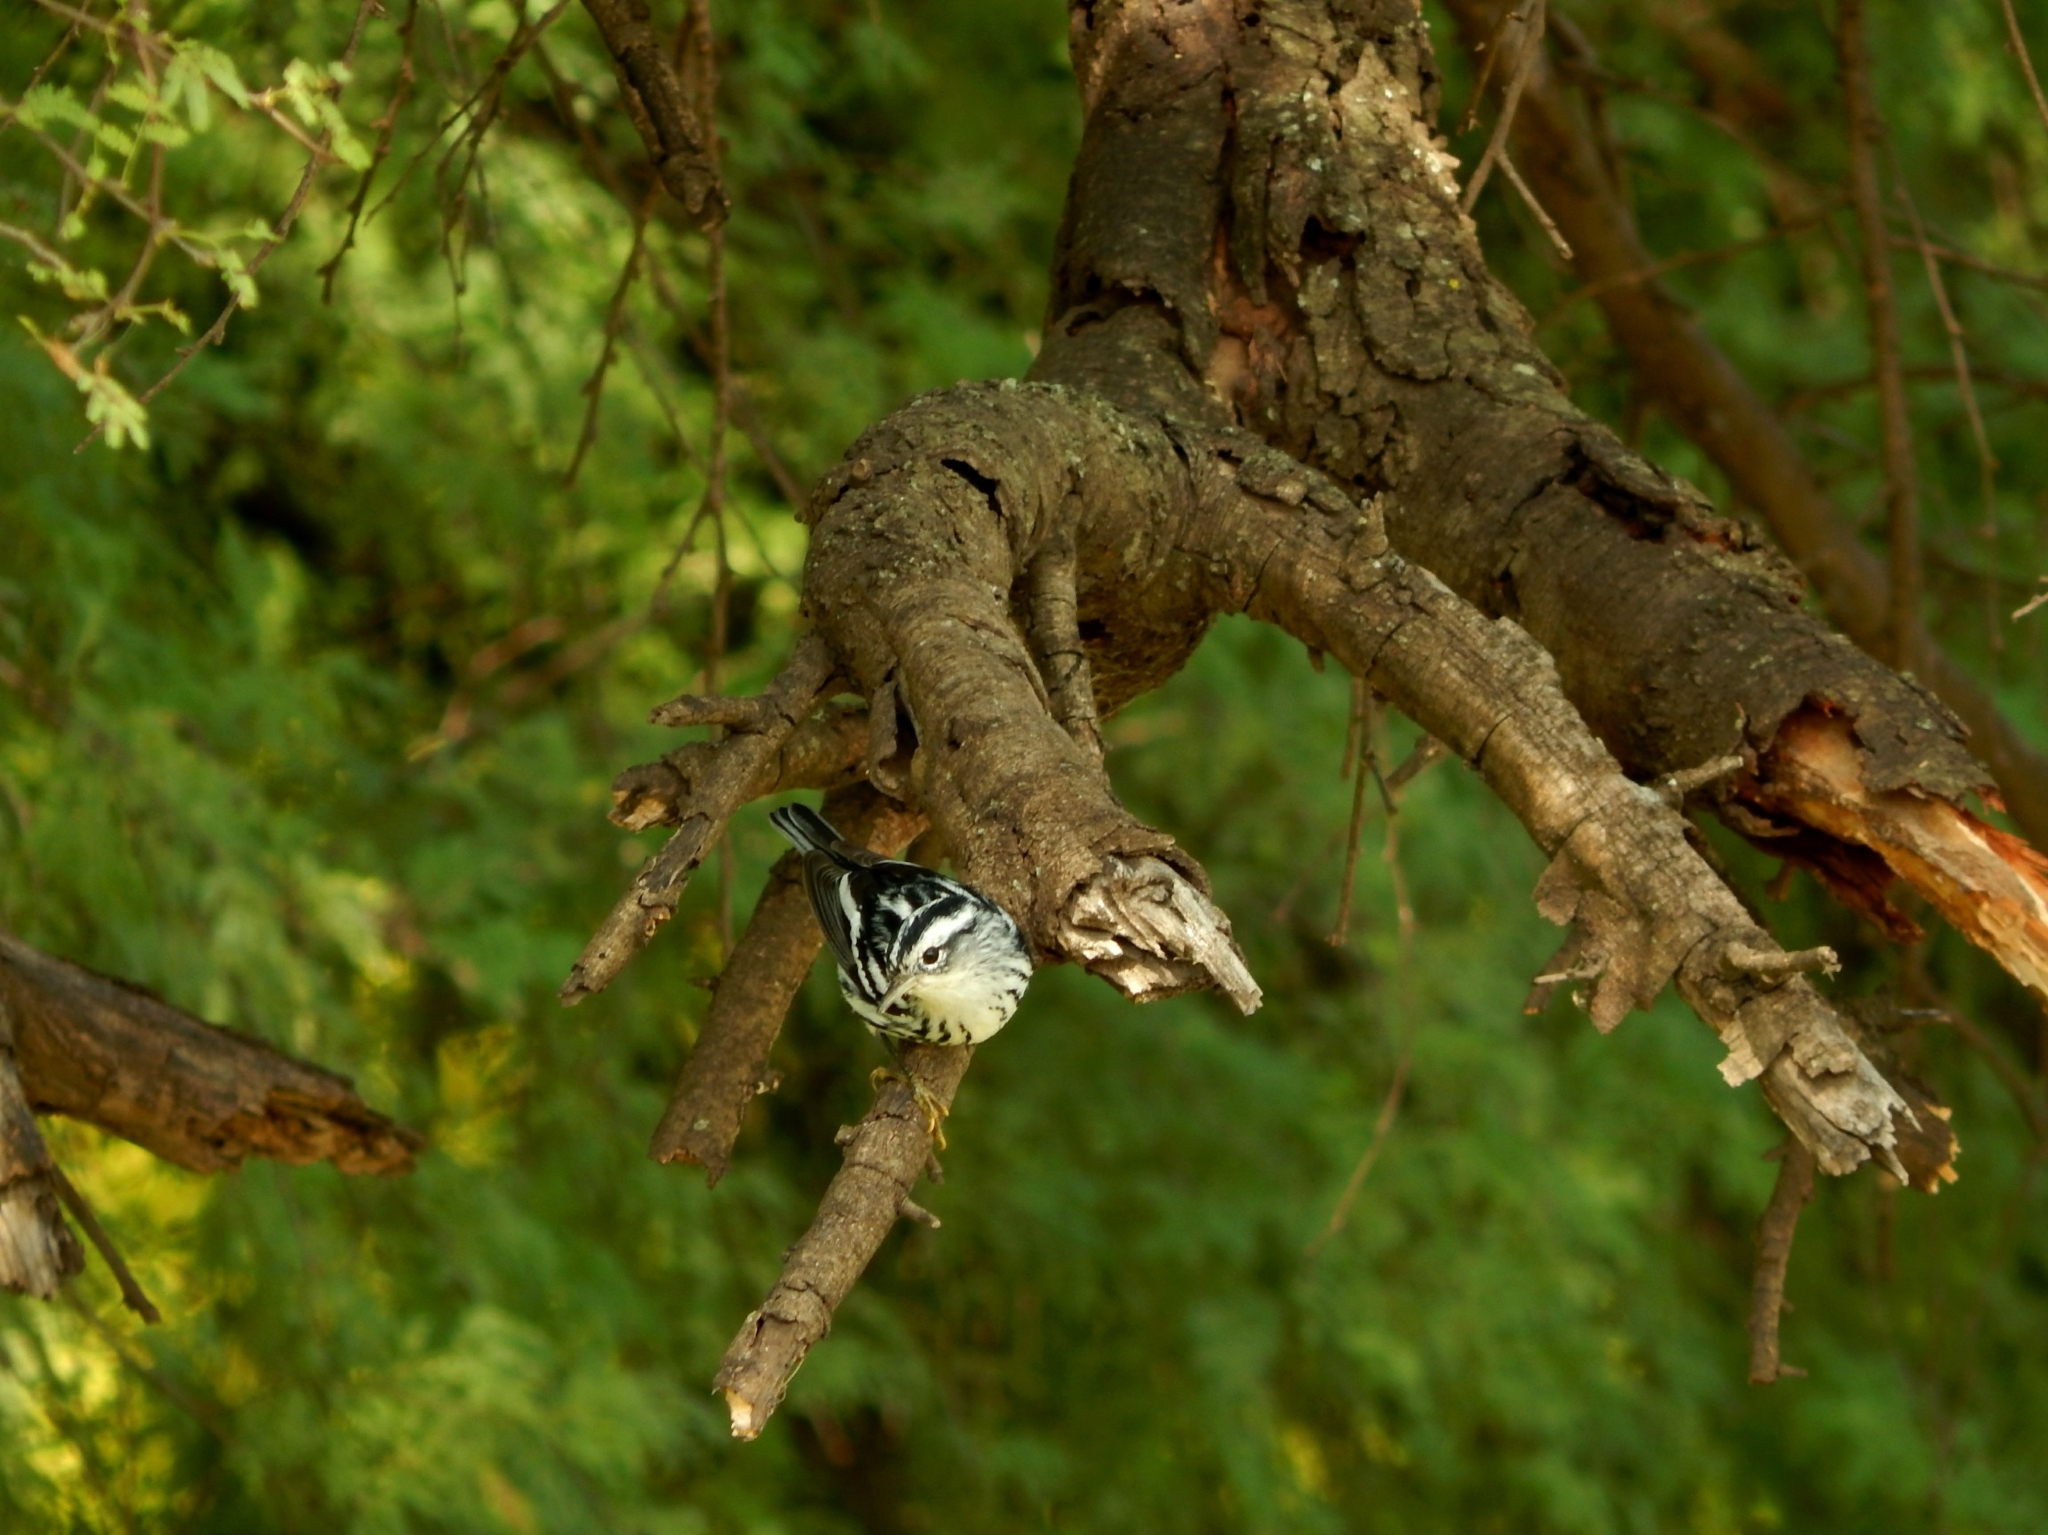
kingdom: Animalia
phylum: Chordata
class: Aves
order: Passeriformes
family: Parulidae
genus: Mniotilta
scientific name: Mniotilta varia
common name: Black-and-white warbler
